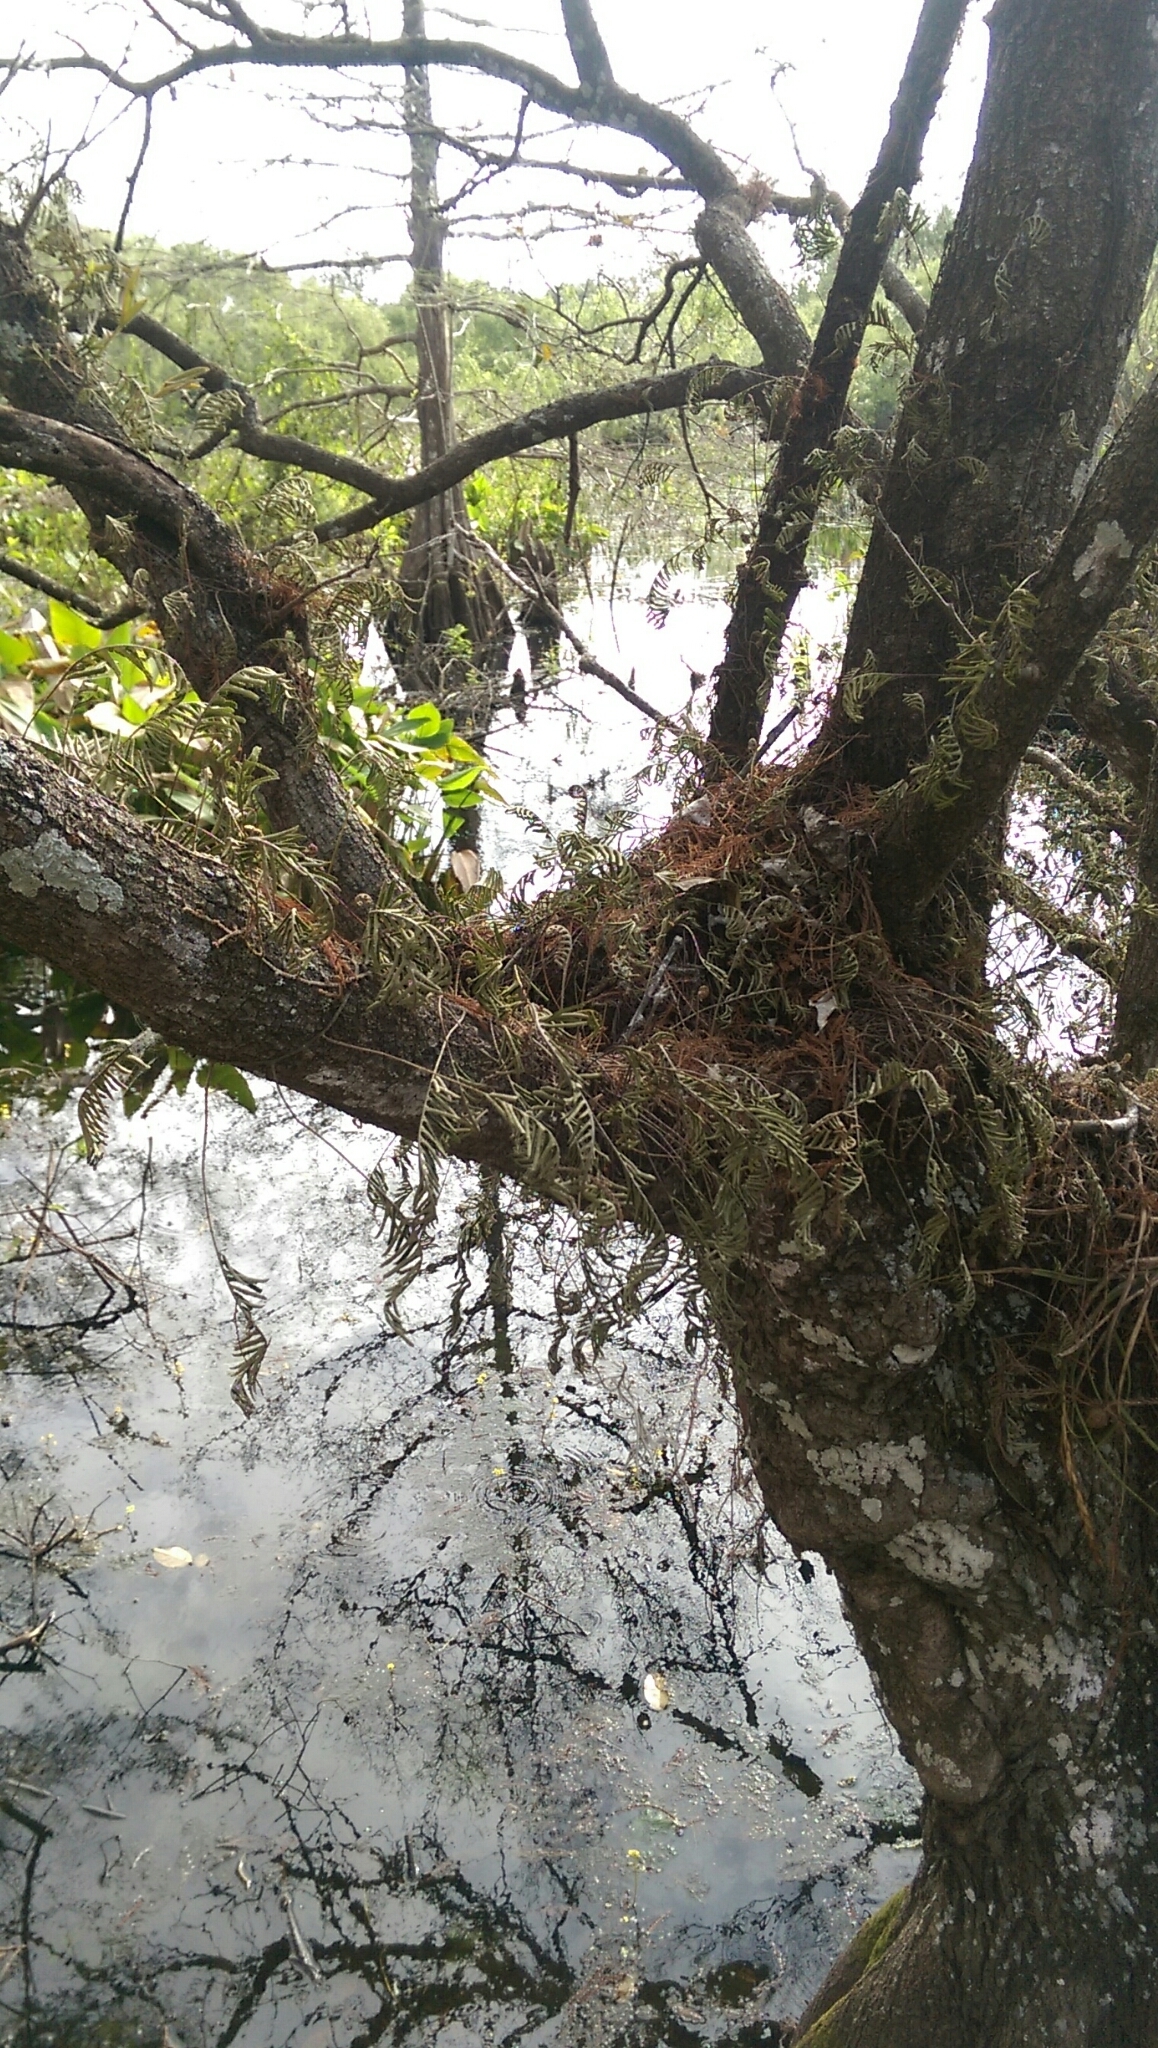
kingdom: Plantae
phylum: Tracheophyta
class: Polypodiopsida
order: Polypodiales
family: Polypodiaceae
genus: Pleopeltis
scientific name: Pleopeltis michauxiana
